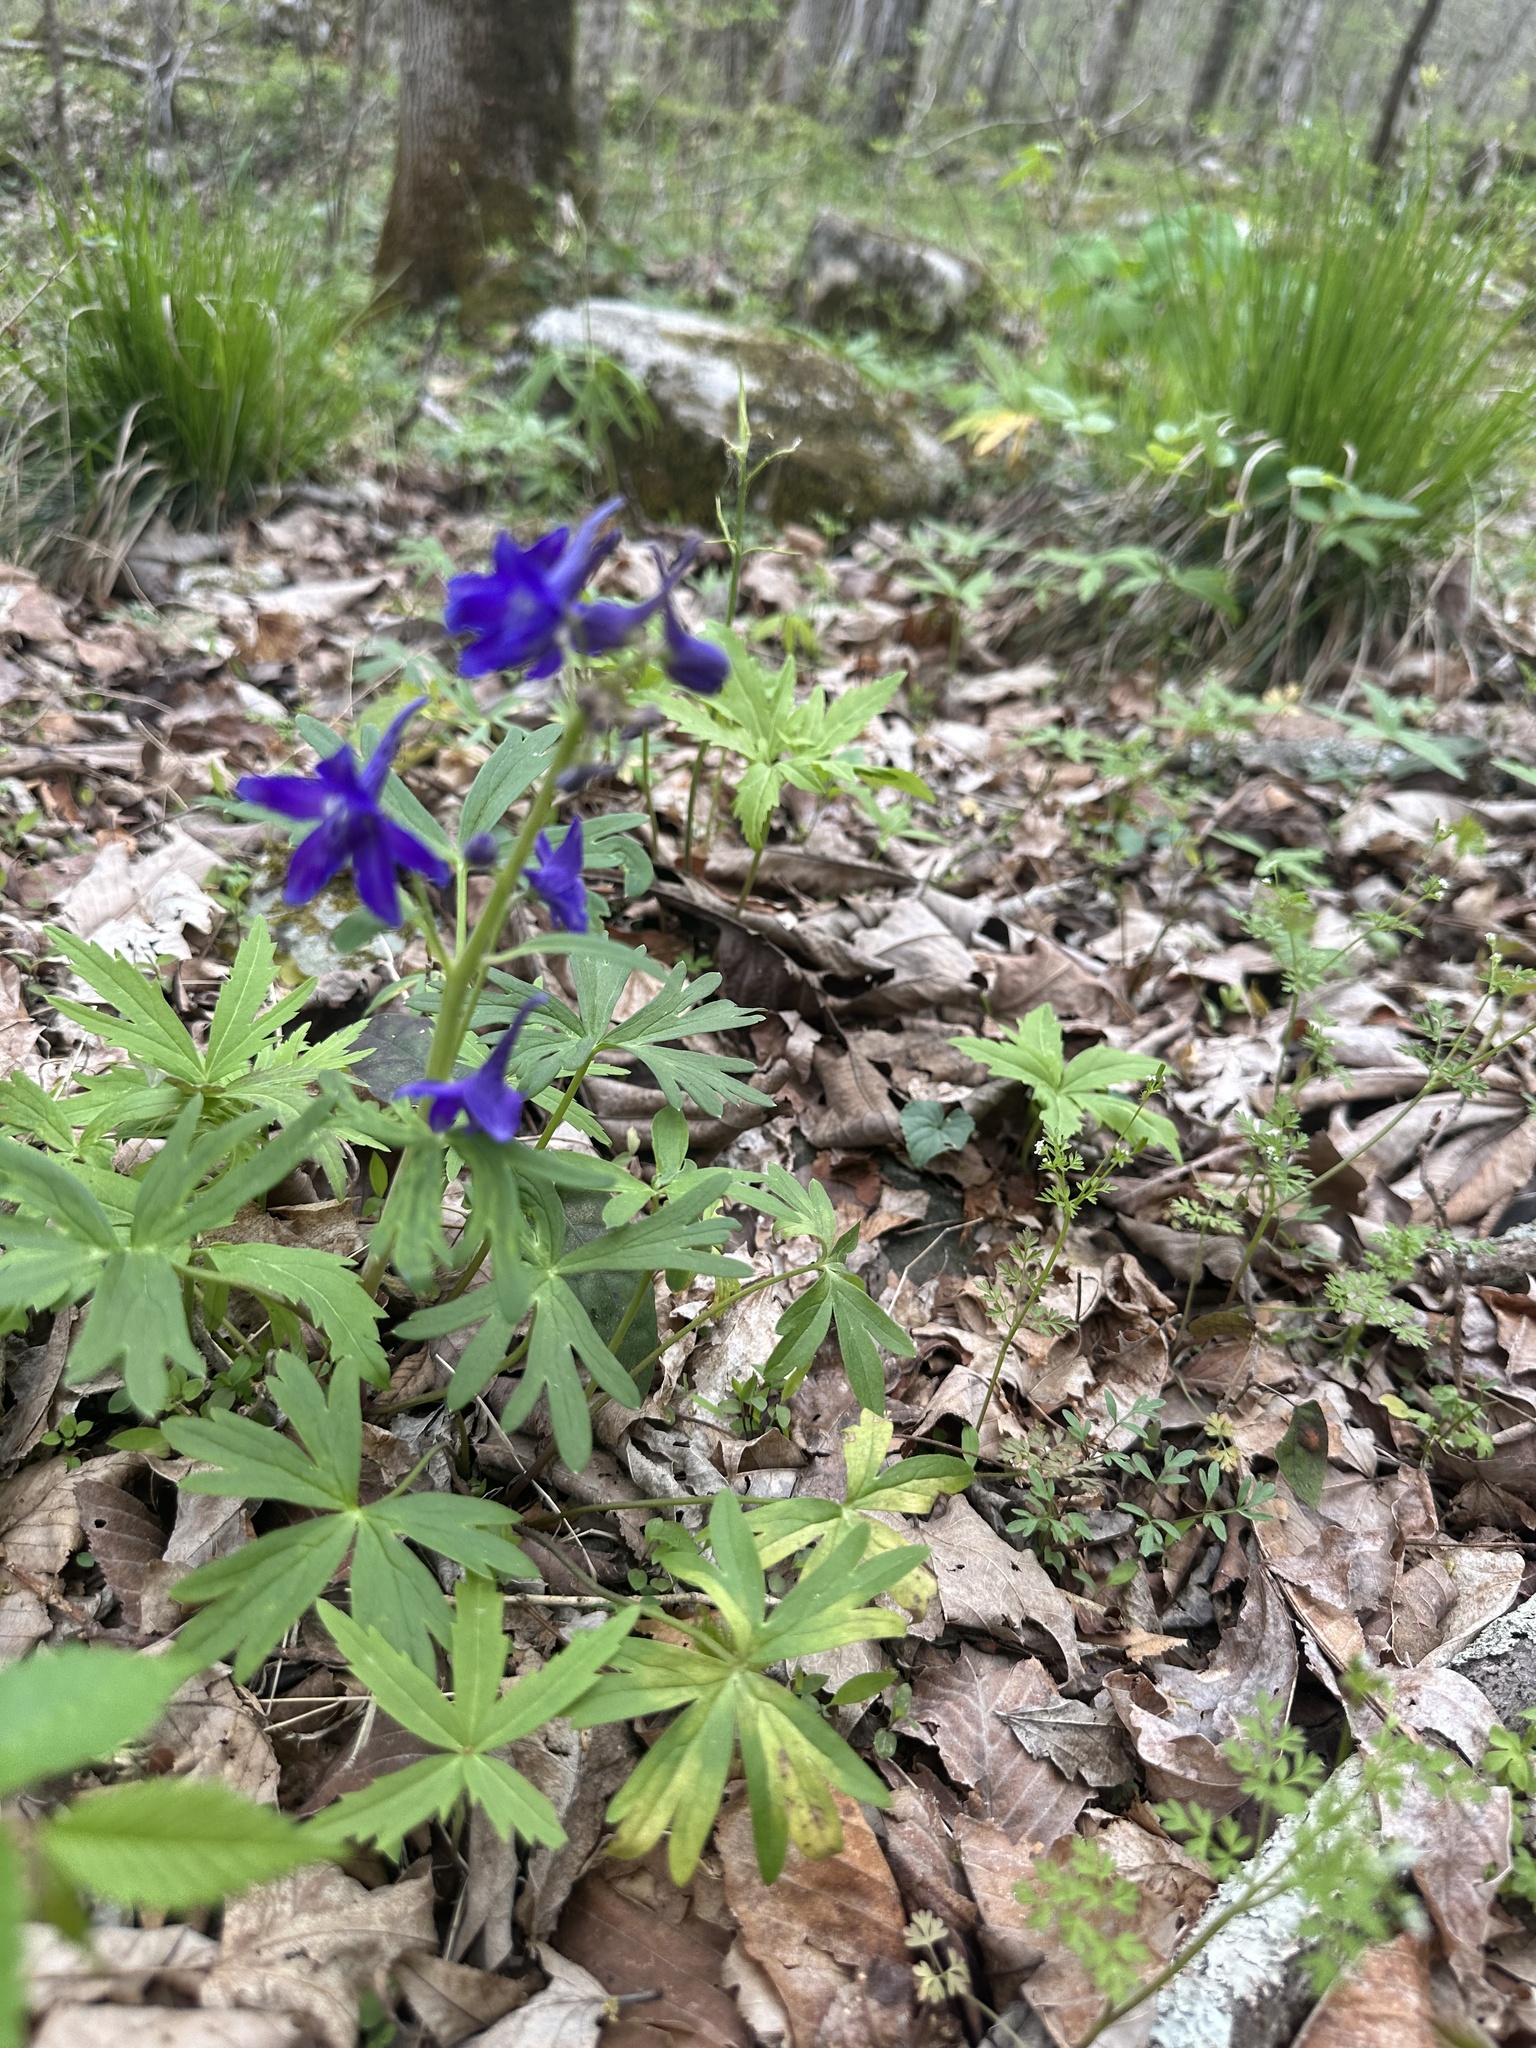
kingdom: Plantae
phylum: Tracheophyta
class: Magnoliopsida
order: Ranunculales
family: Ranunculaceae
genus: Delphinium
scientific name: Delphinium tricorne
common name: Dwarf larkspur
